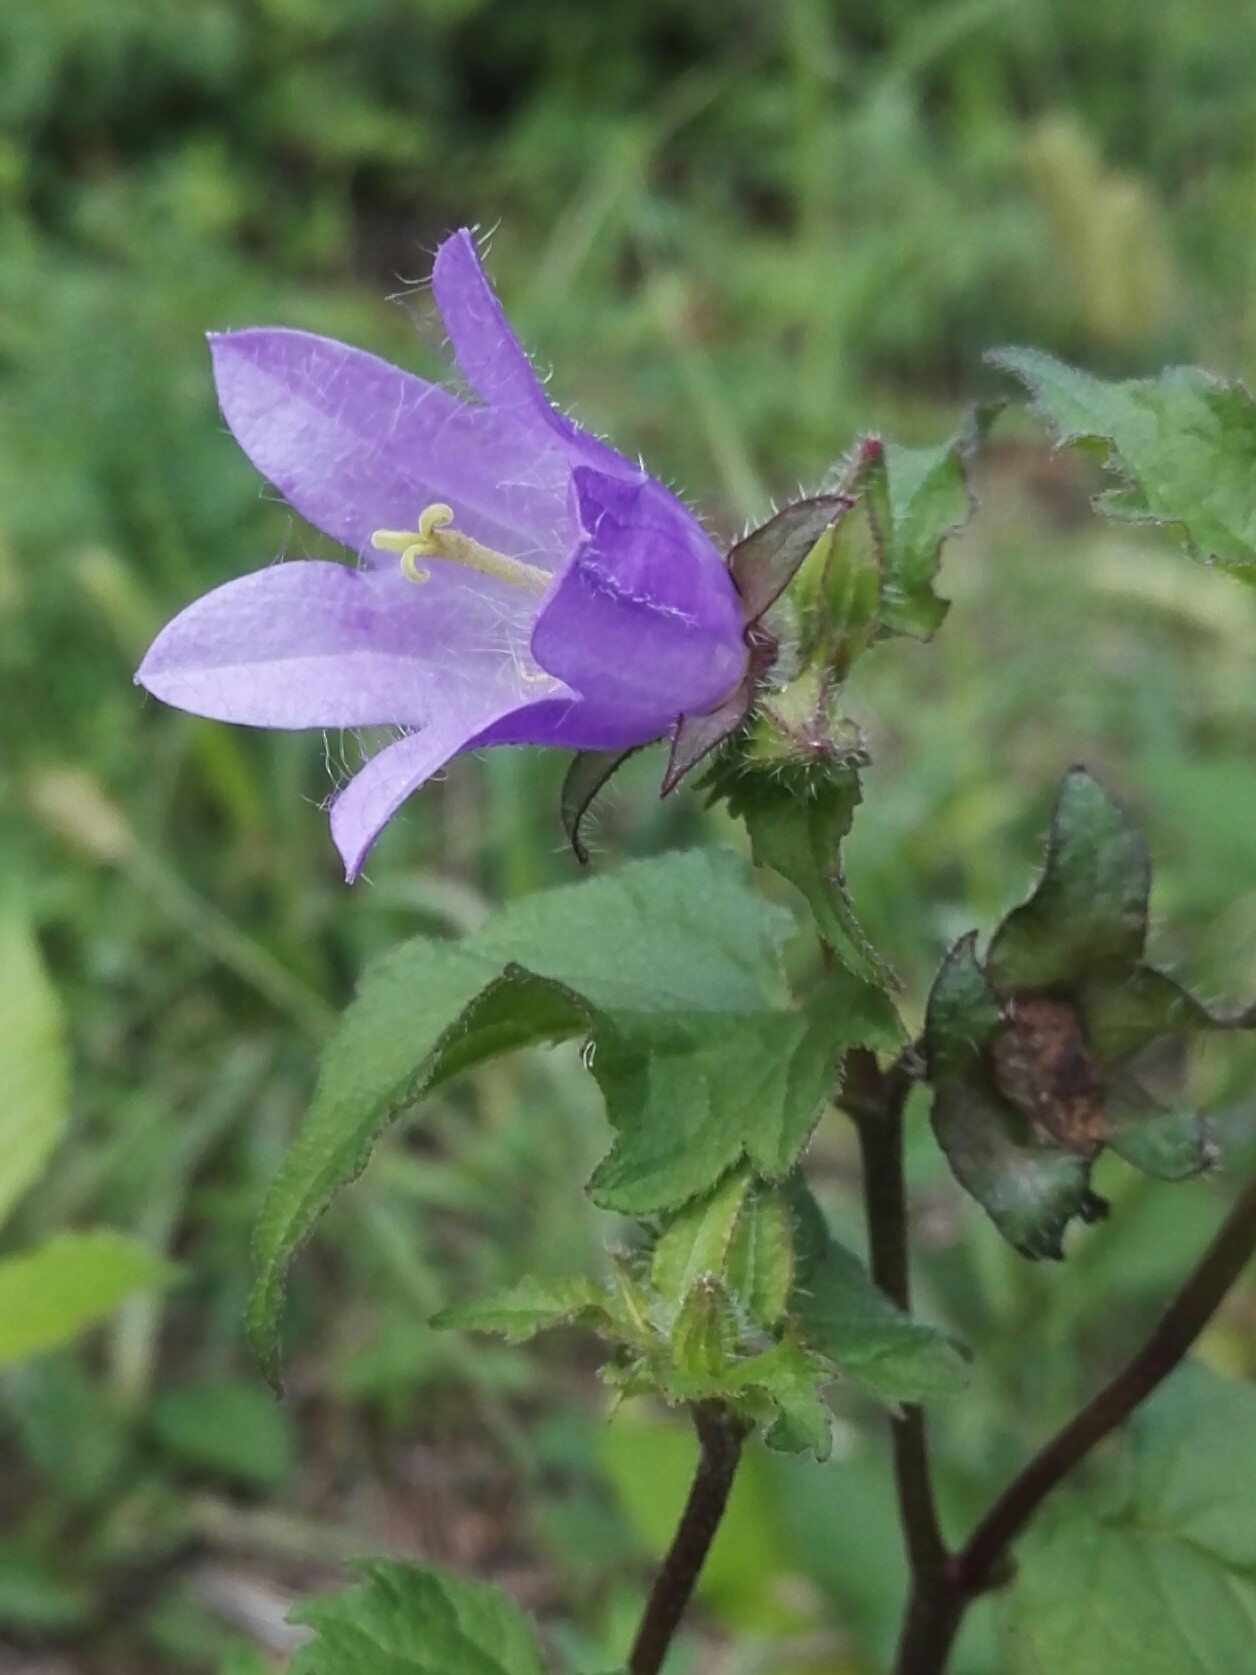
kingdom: Plantae
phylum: Tracheophyta
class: Magnoliopsida
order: Asterales
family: Campanulaceae
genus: Campanula
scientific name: Campanula trachelium
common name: Nettle-leaved bellflower
